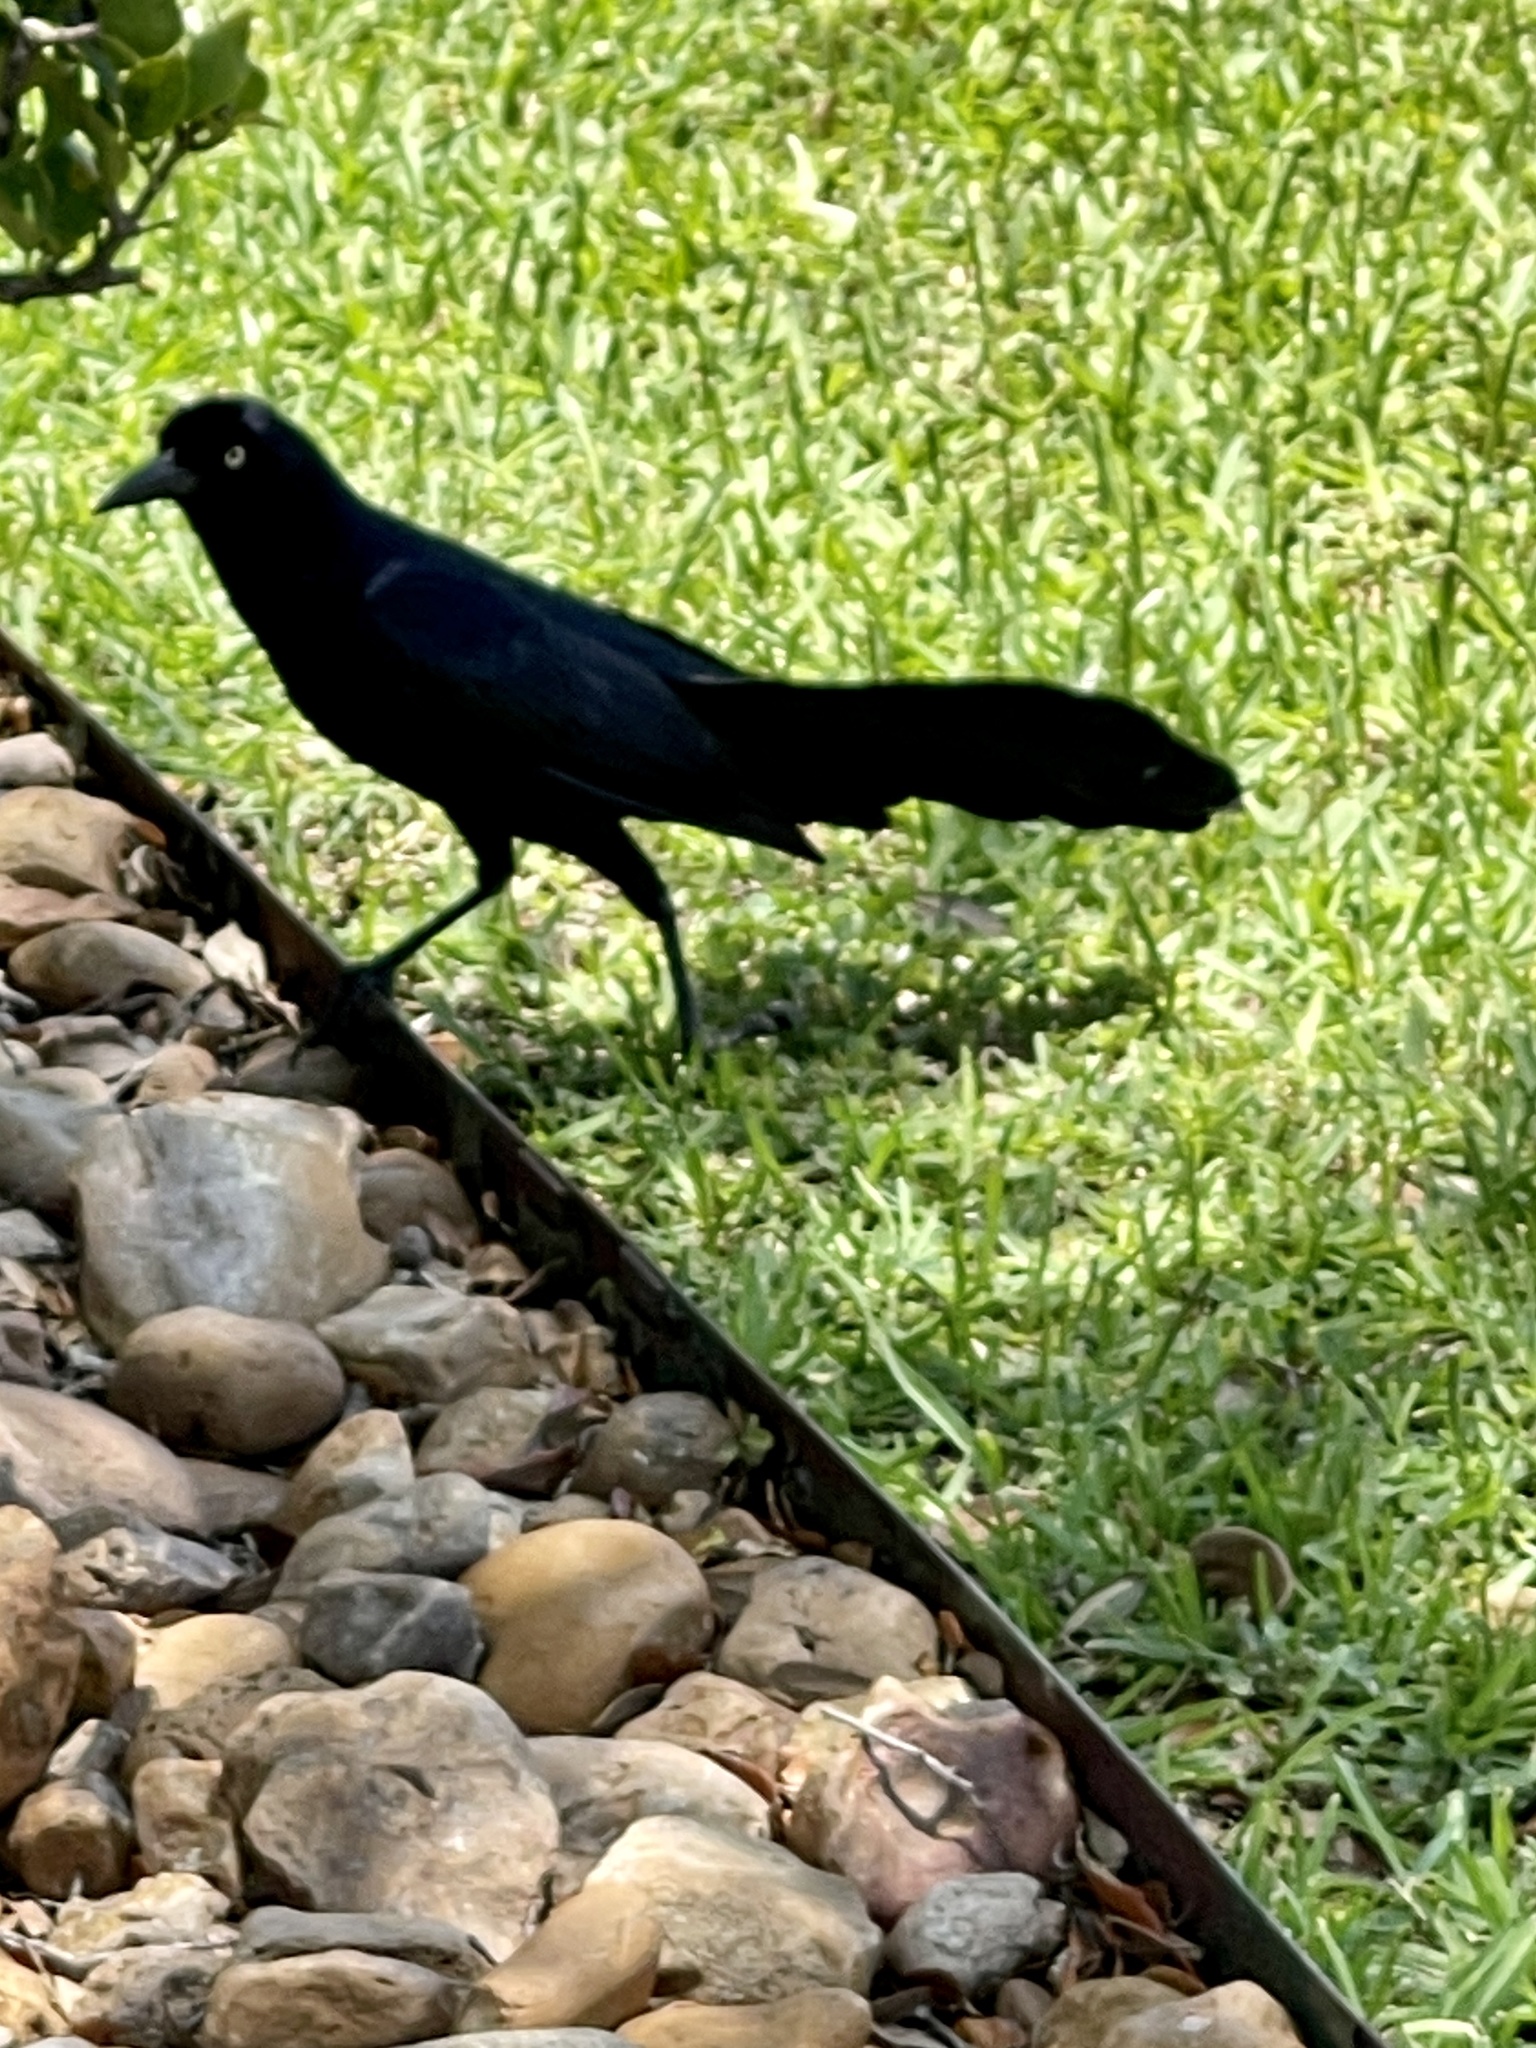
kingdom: Animalia
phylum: Chordata
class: Aves
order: Passeriformes
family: Icteridae
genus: Quiscalus
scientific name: Quiscalus mexicanus
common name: Great-tailed grackle
